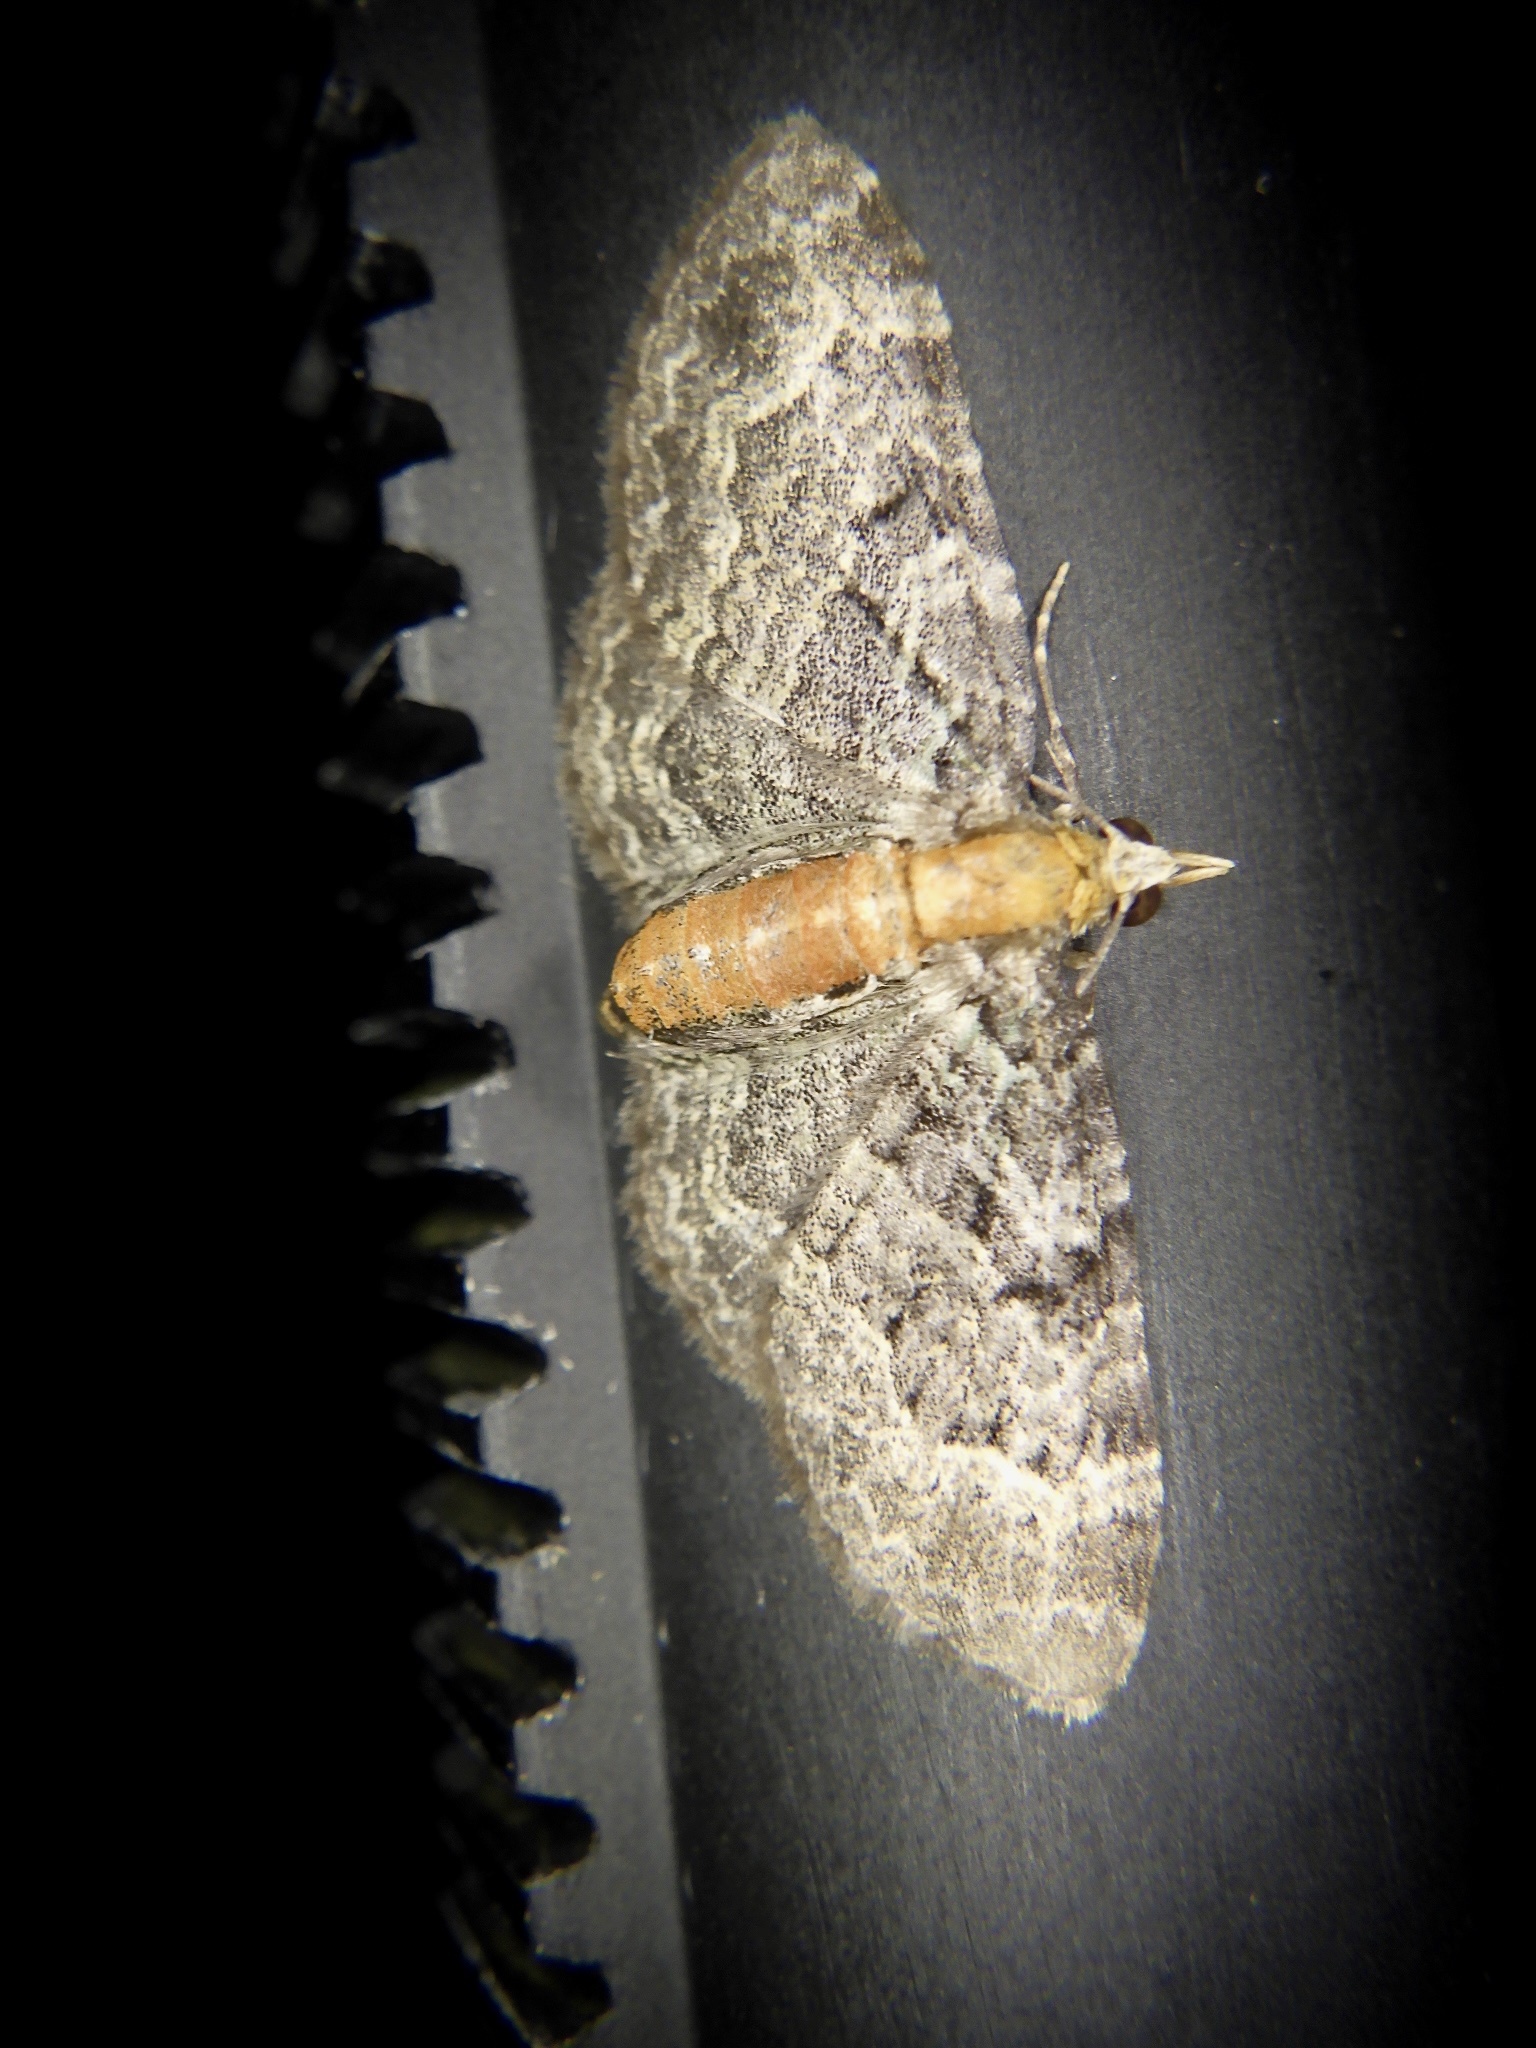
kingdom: Animalia
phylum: Arthropoda
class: Insecta
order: Lepidoptera
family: Geometridae
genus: Pasiphila
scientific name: Pasiphila obscura
